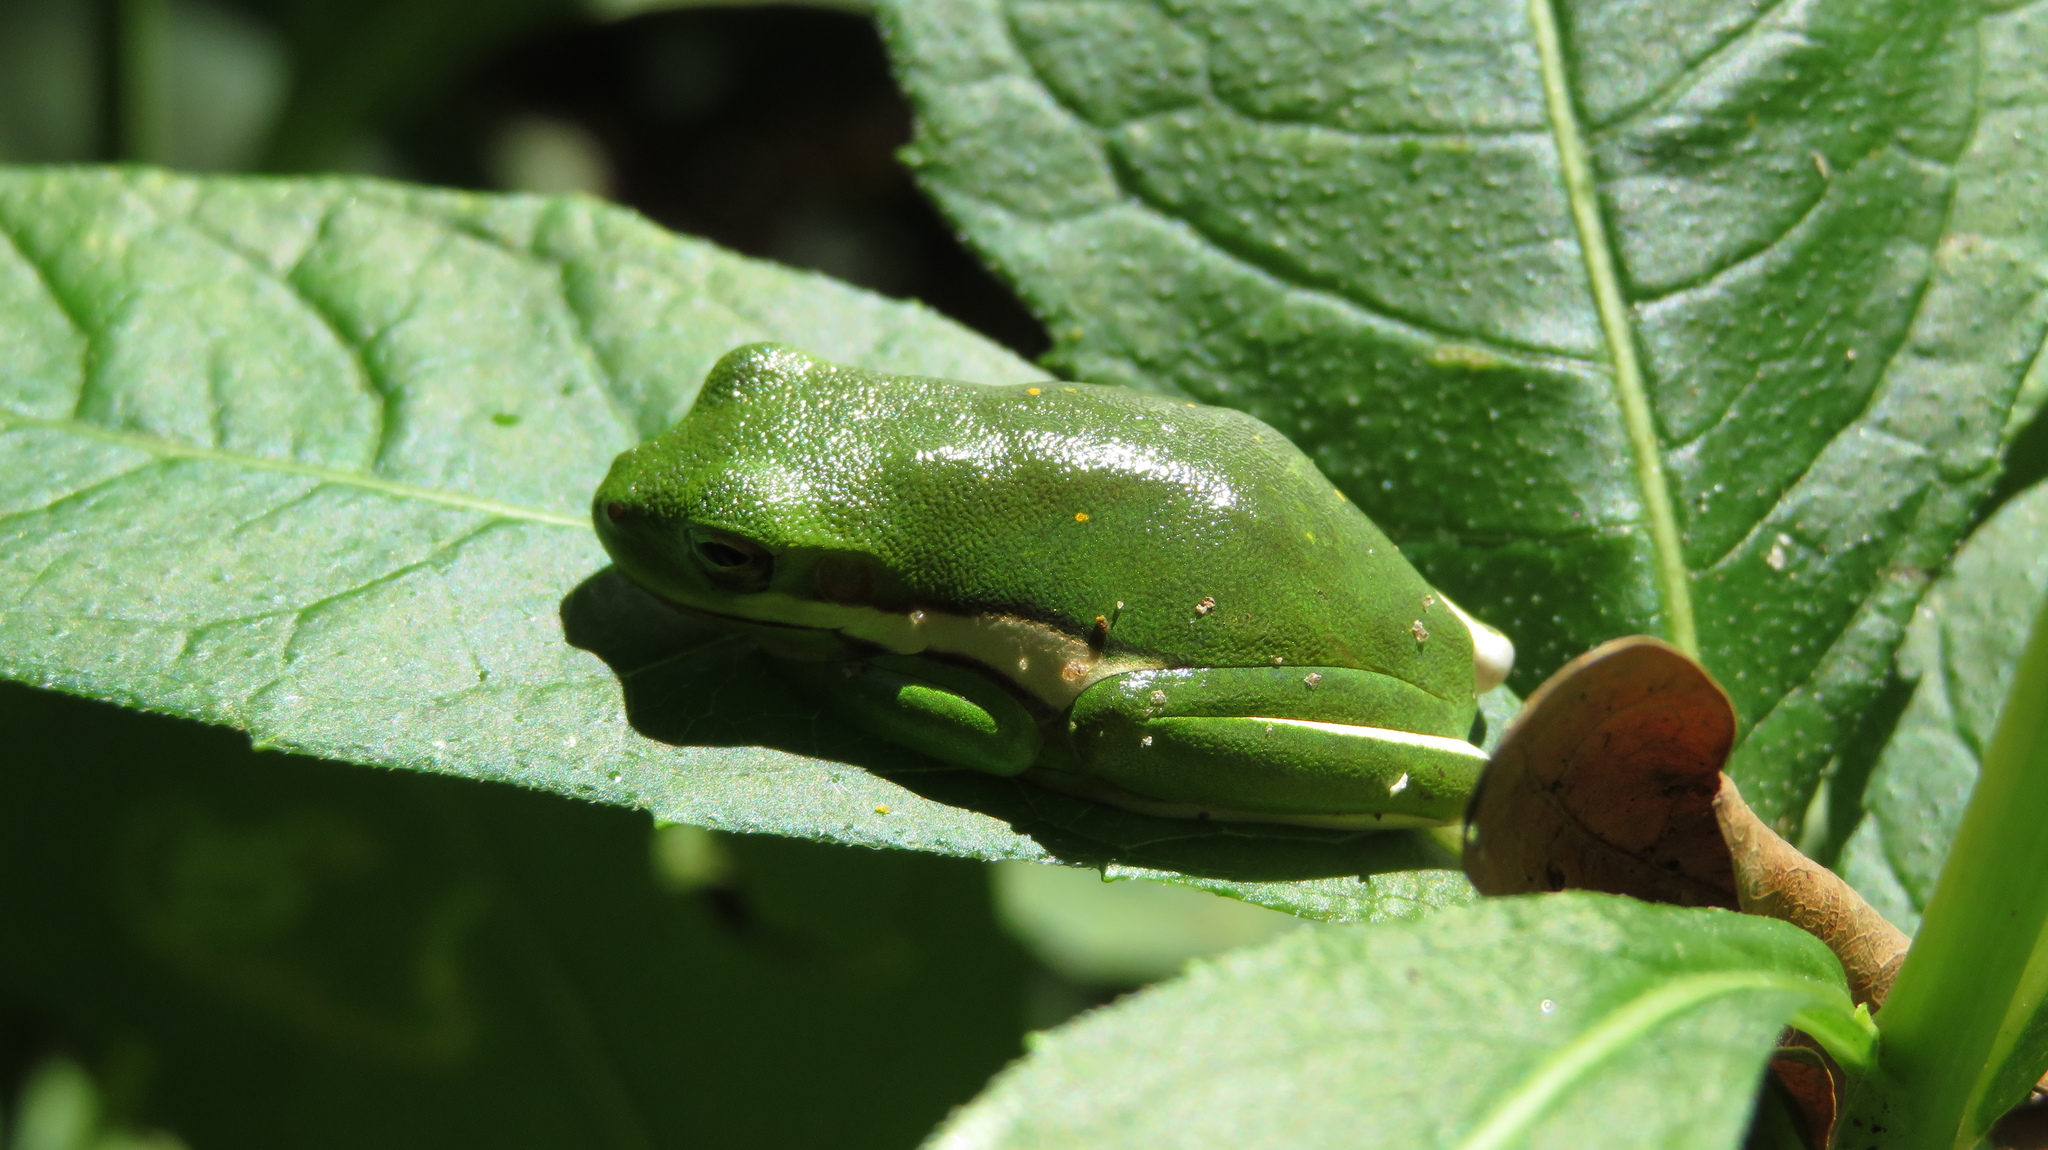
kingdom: Animalia
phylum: Chordata
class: Amphibia
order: Anura
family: Hylidae
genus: Dryophytes
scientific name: Dryophytes cinereus
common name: Green treefrog
